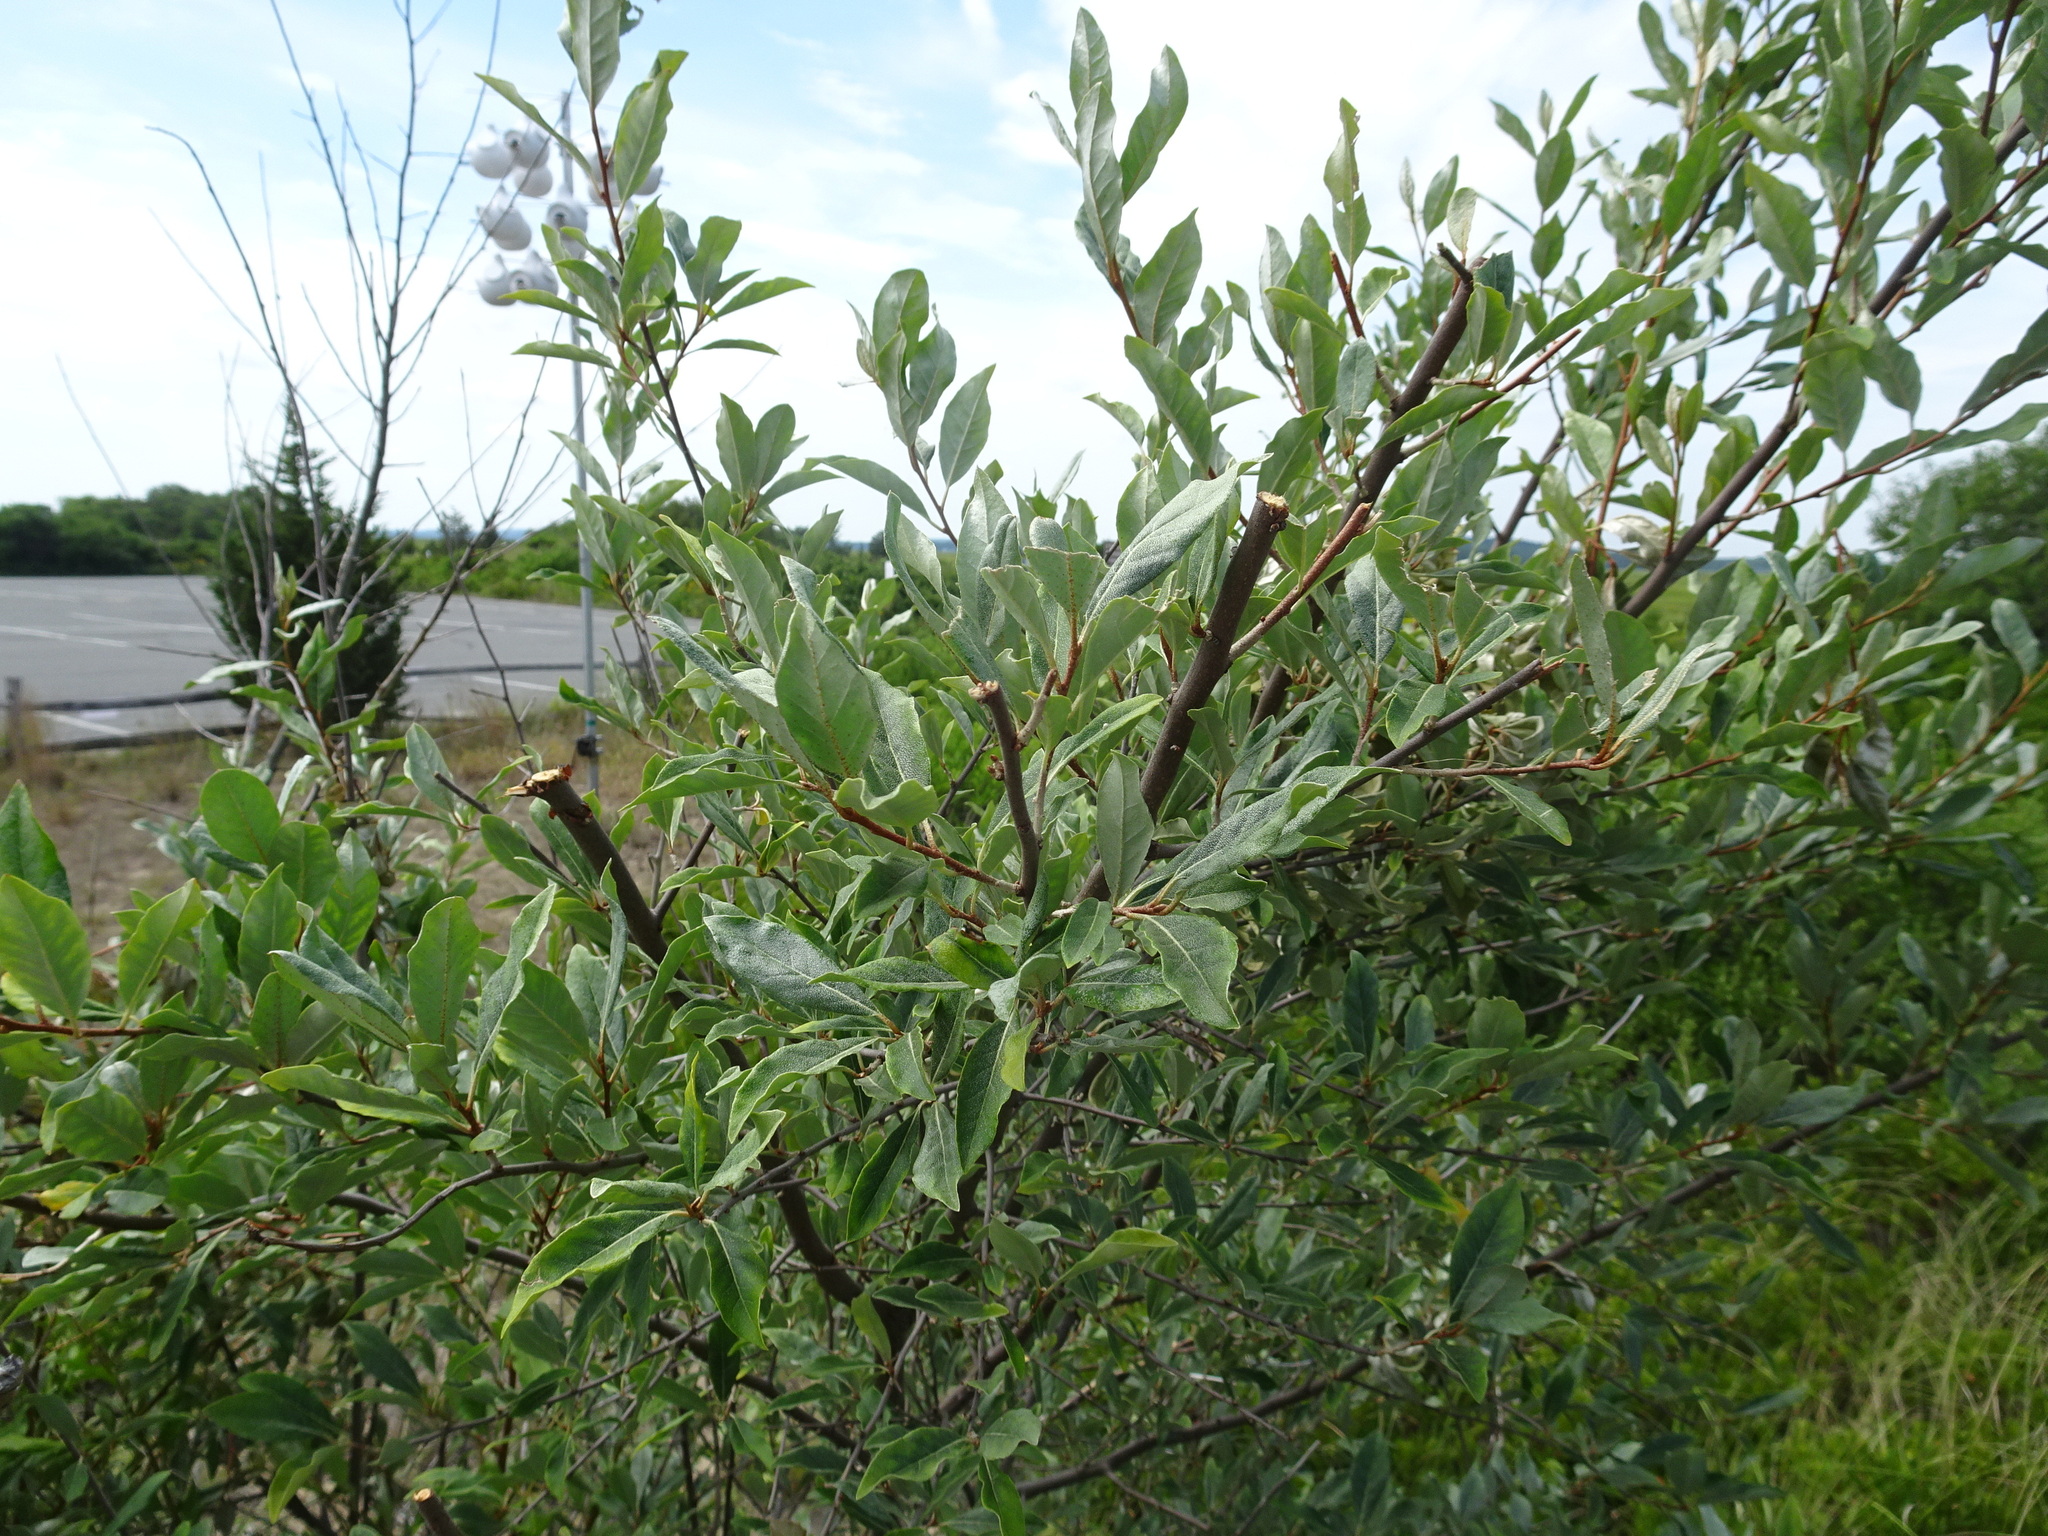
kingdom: Plantae
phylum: Tracheophyta
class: Magnoliopsida
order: Rosales
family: Elaeagnaceae
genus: Elaeagnus
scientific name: Elaeagnus umbellata
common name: Autumn olive
